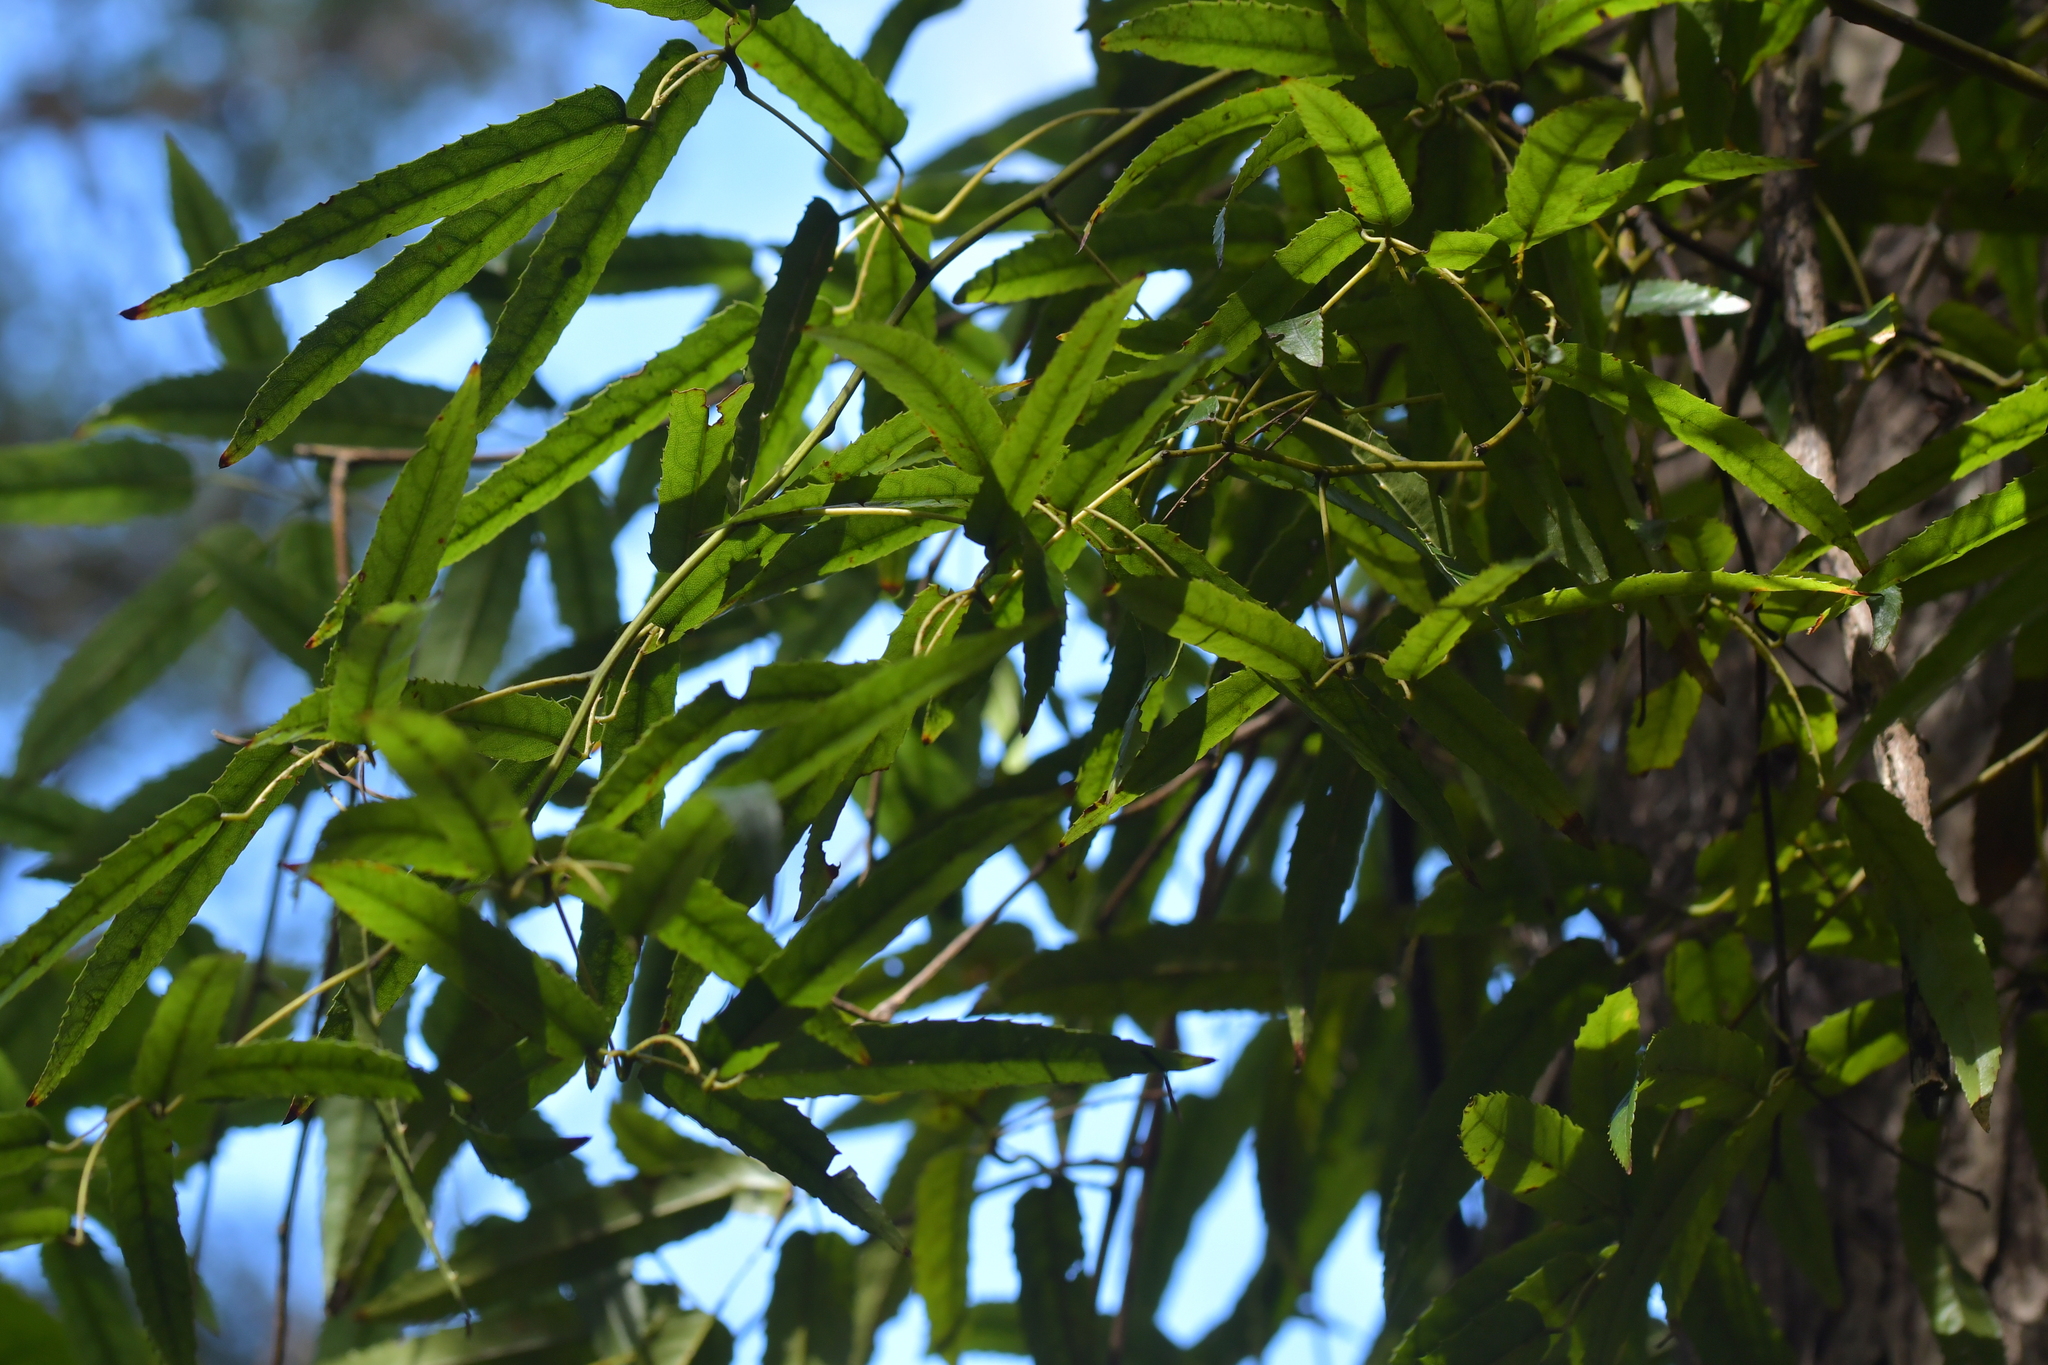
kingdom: Plantae
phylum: Tracheophyta
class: Magnoliopsida
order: Rosales
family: Rosaceae
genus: Rubus
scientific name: Rubus cissoides
